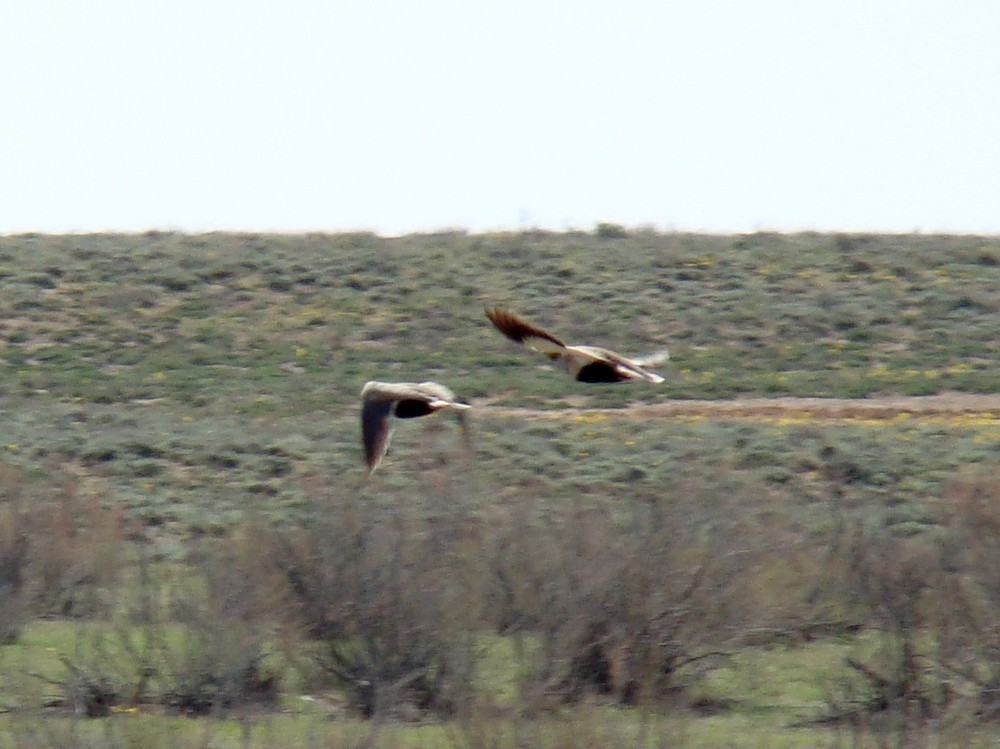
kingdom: Animalia
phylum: Chordata
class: Aves
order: Pteroclidiformes
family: Pteroclididae
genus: Pterocles
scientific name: Pterocles orientalis
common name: Black-bellied sandgrouse
